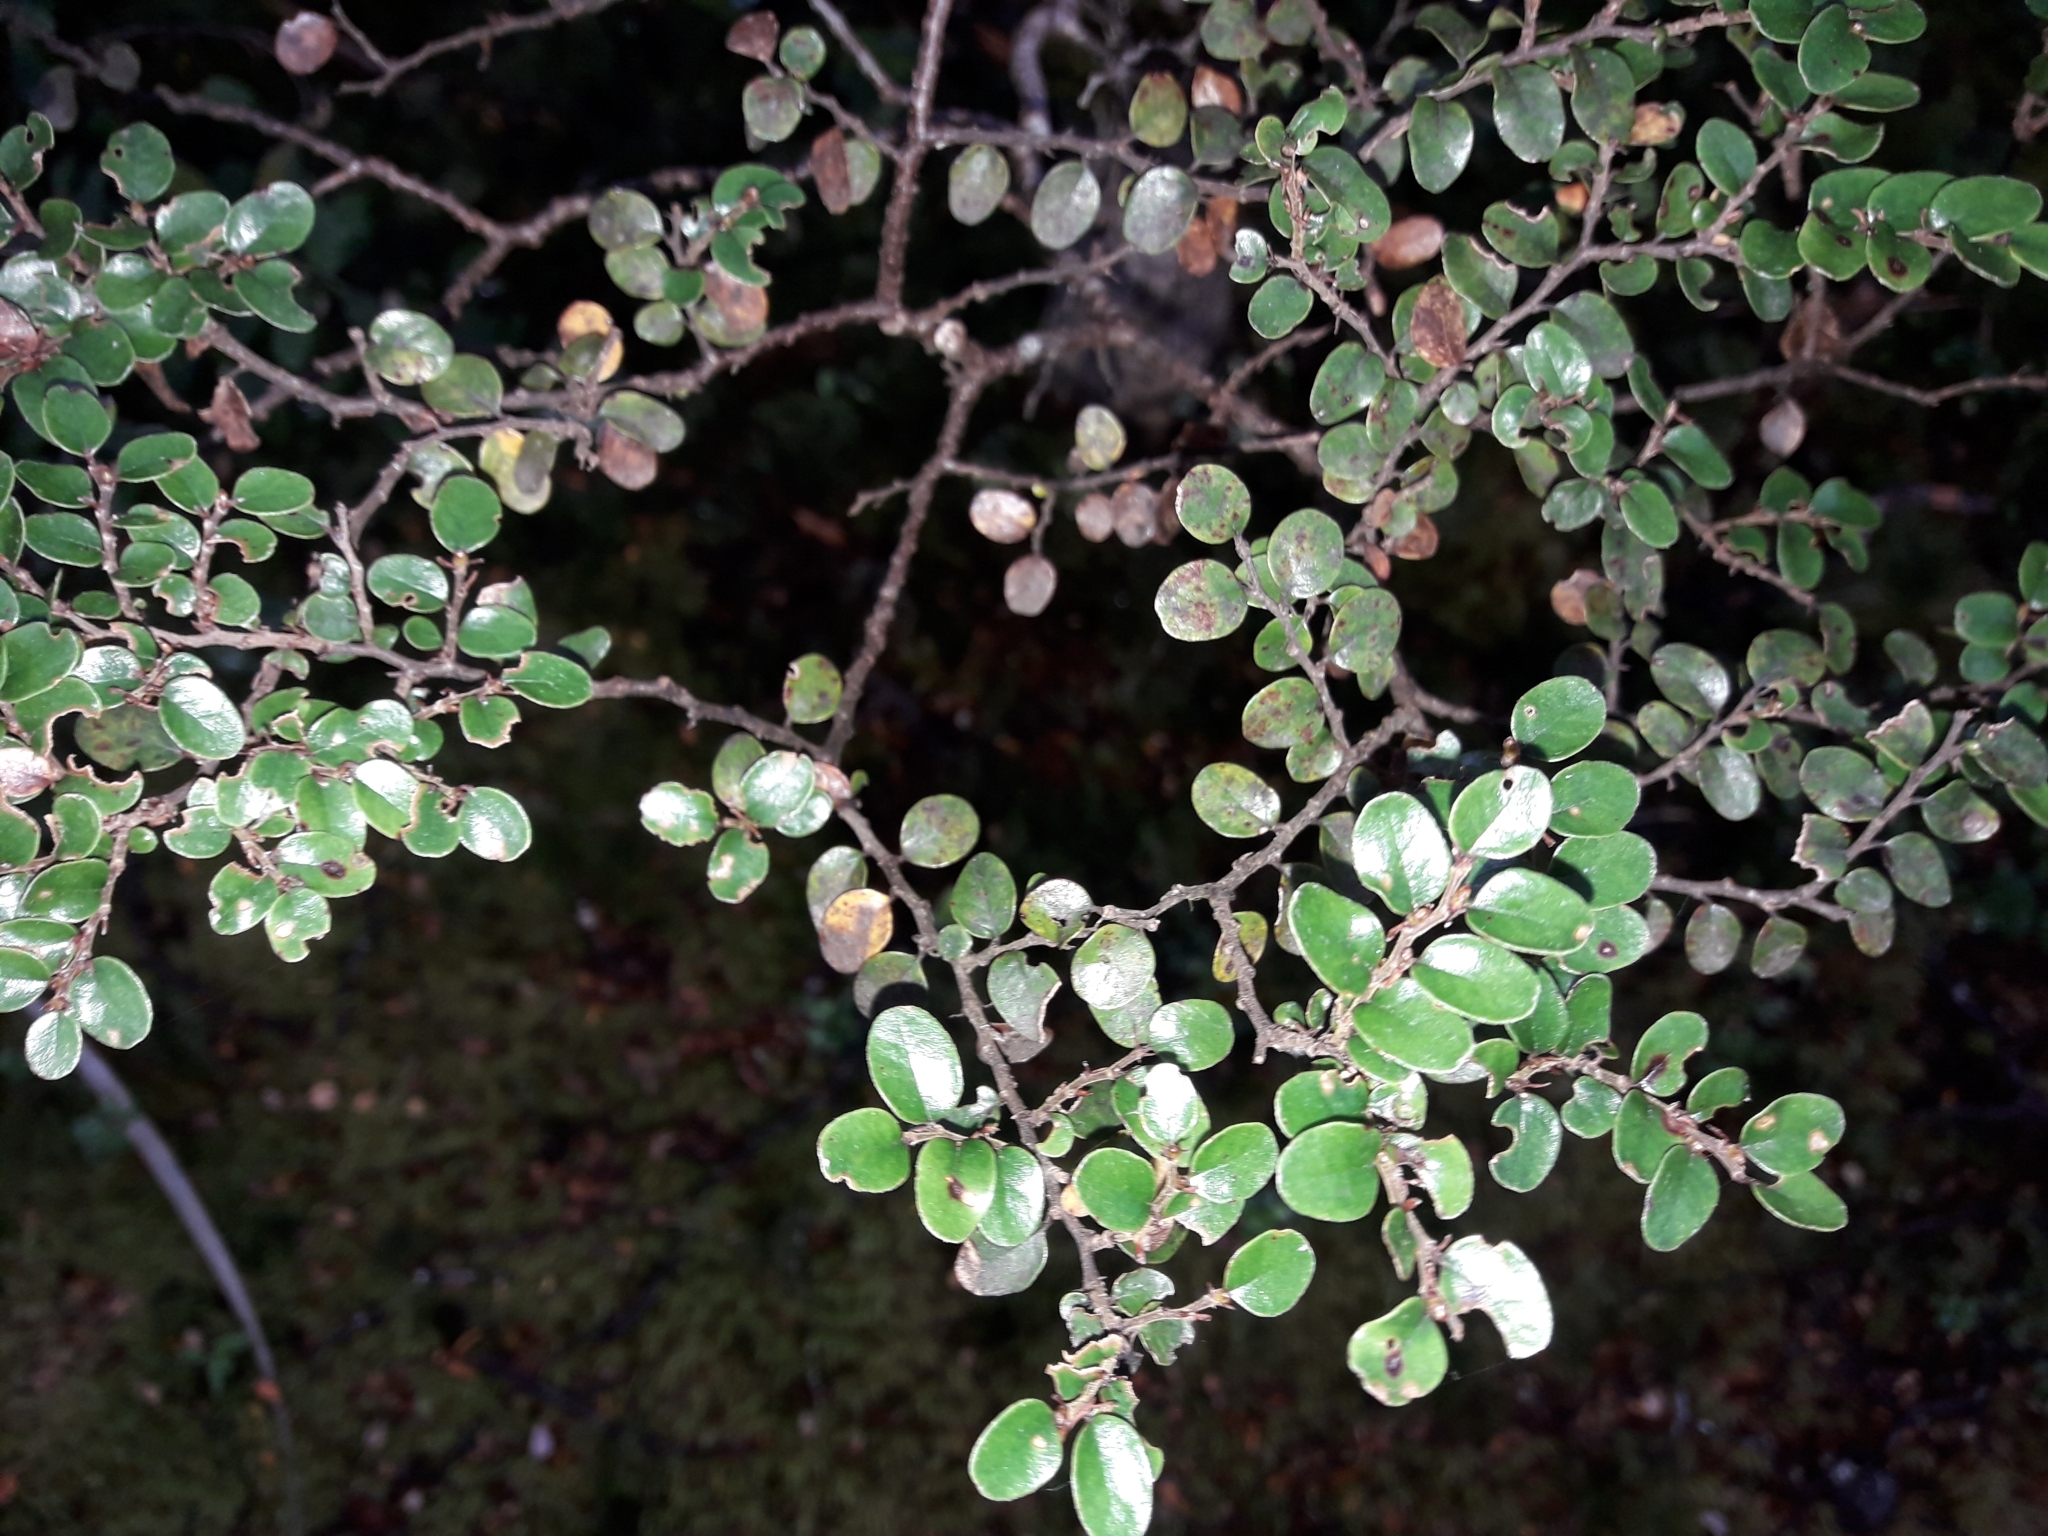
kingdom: Plantae
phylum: Tracheophyta
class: Magnoliopsida
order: Fagales
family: Nothofagaceae
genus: Nothofagus
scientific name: Nothofagus cliffortioides
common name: Mountain beech
